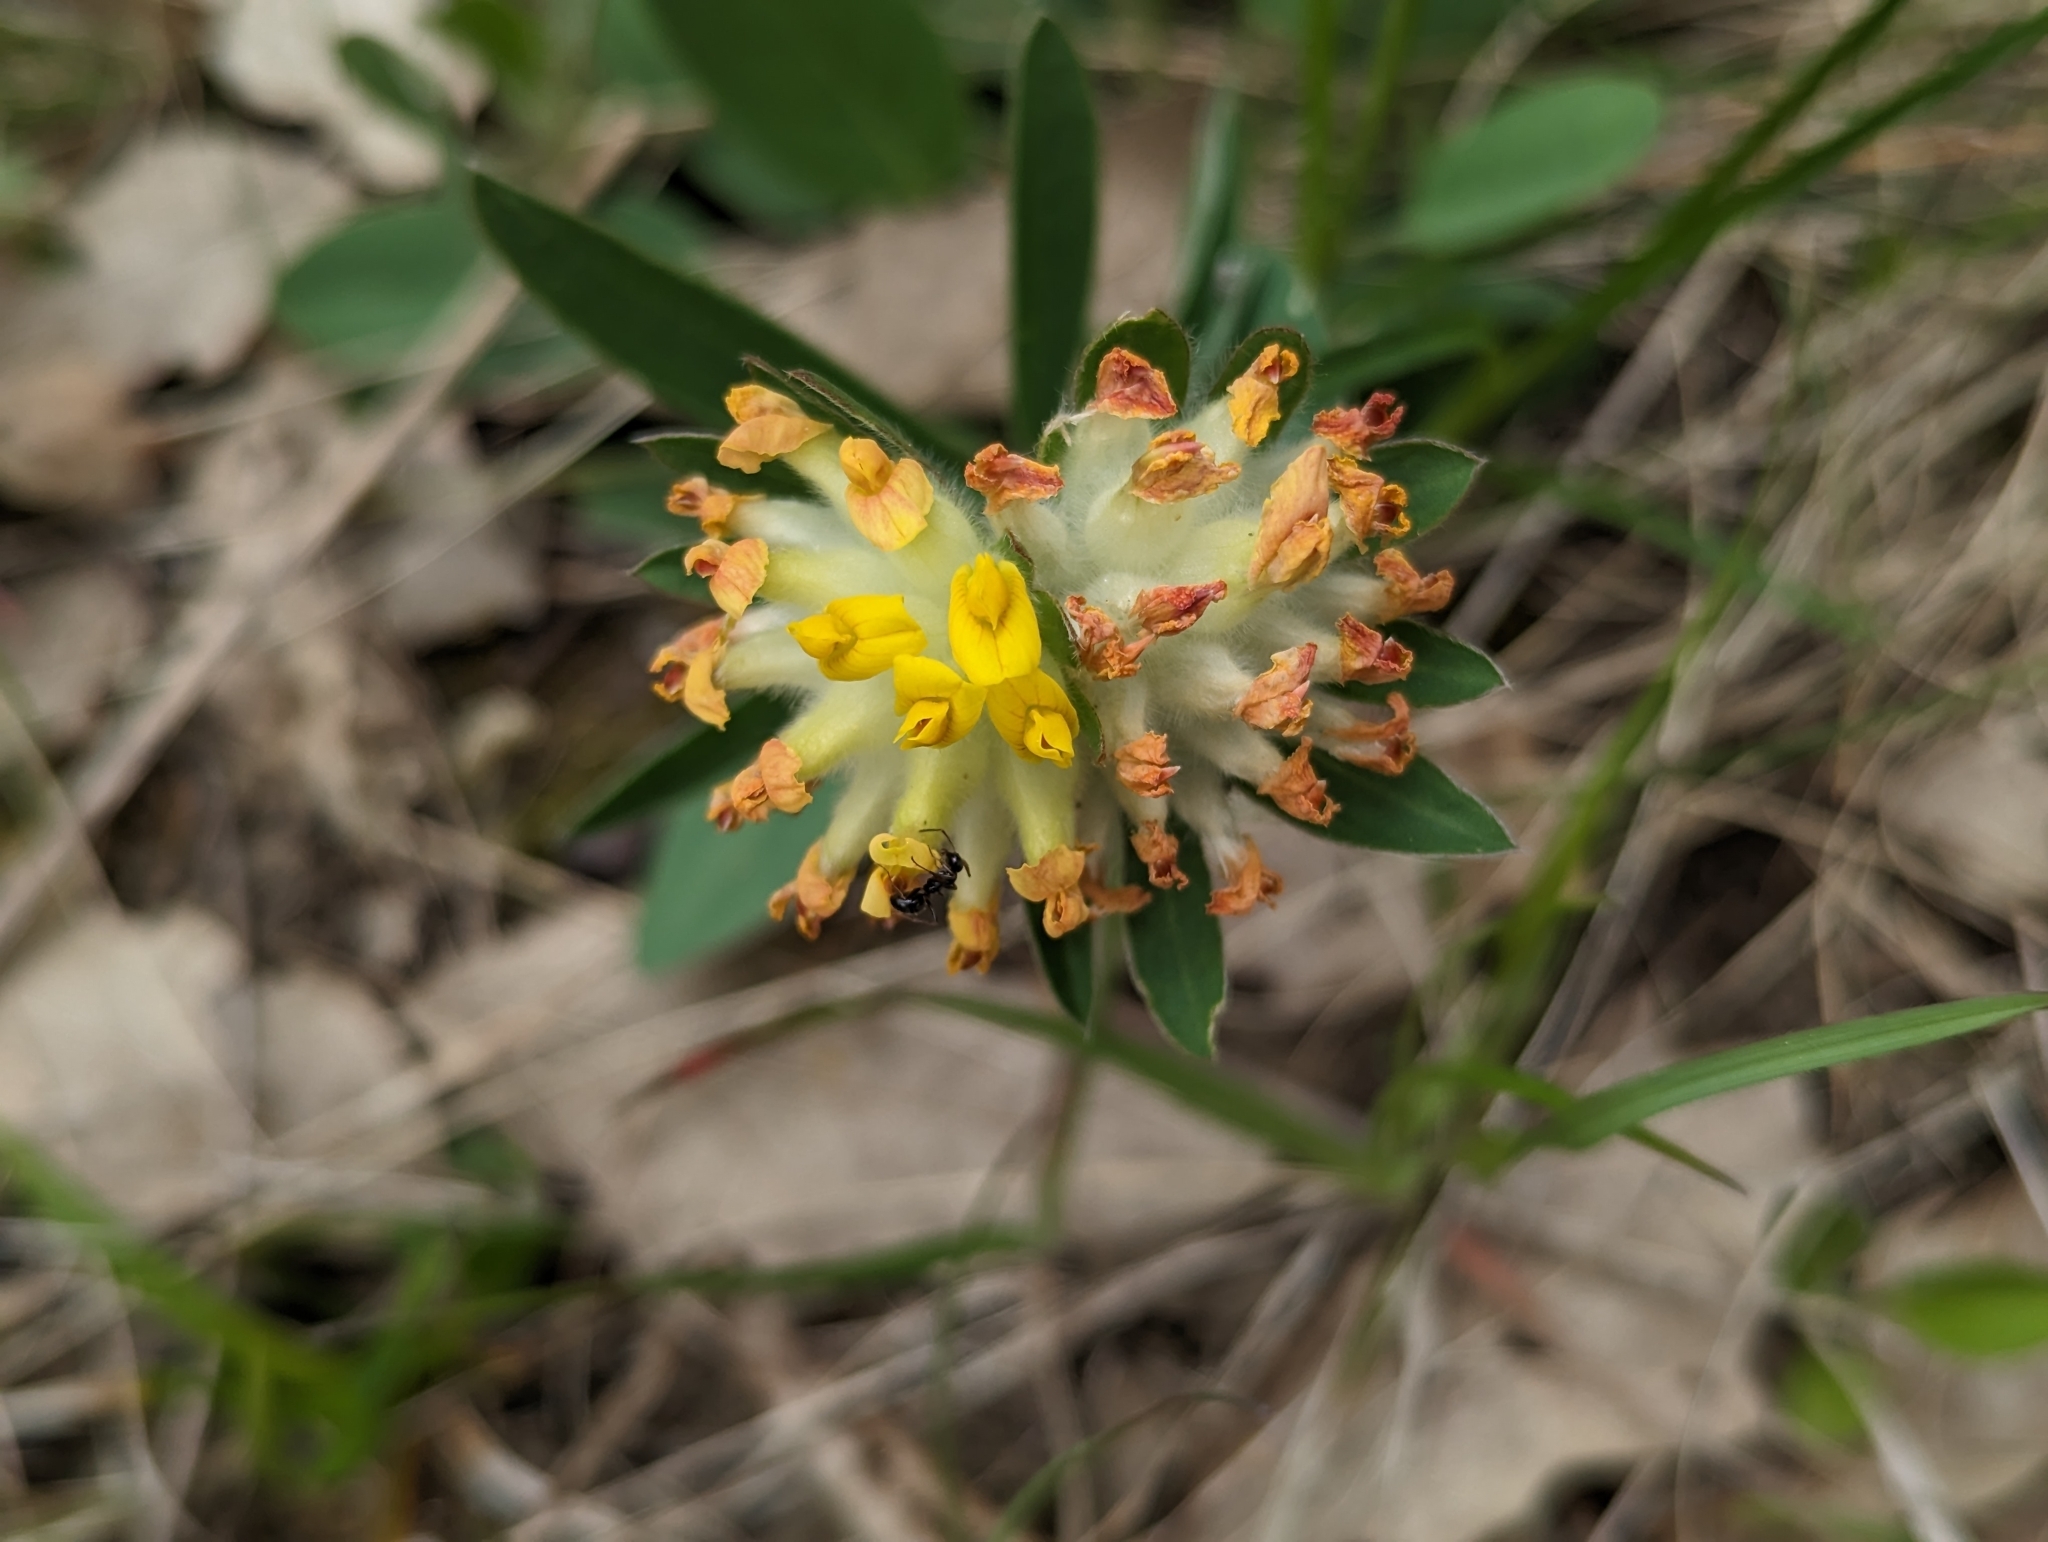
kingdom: Plantae
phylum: Tracheophyta
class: Magnoliopsida
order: Fabales
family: Fabaceae
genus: Anthyllis
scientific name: Anthyllis vulneraria
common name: Kidney vetch
